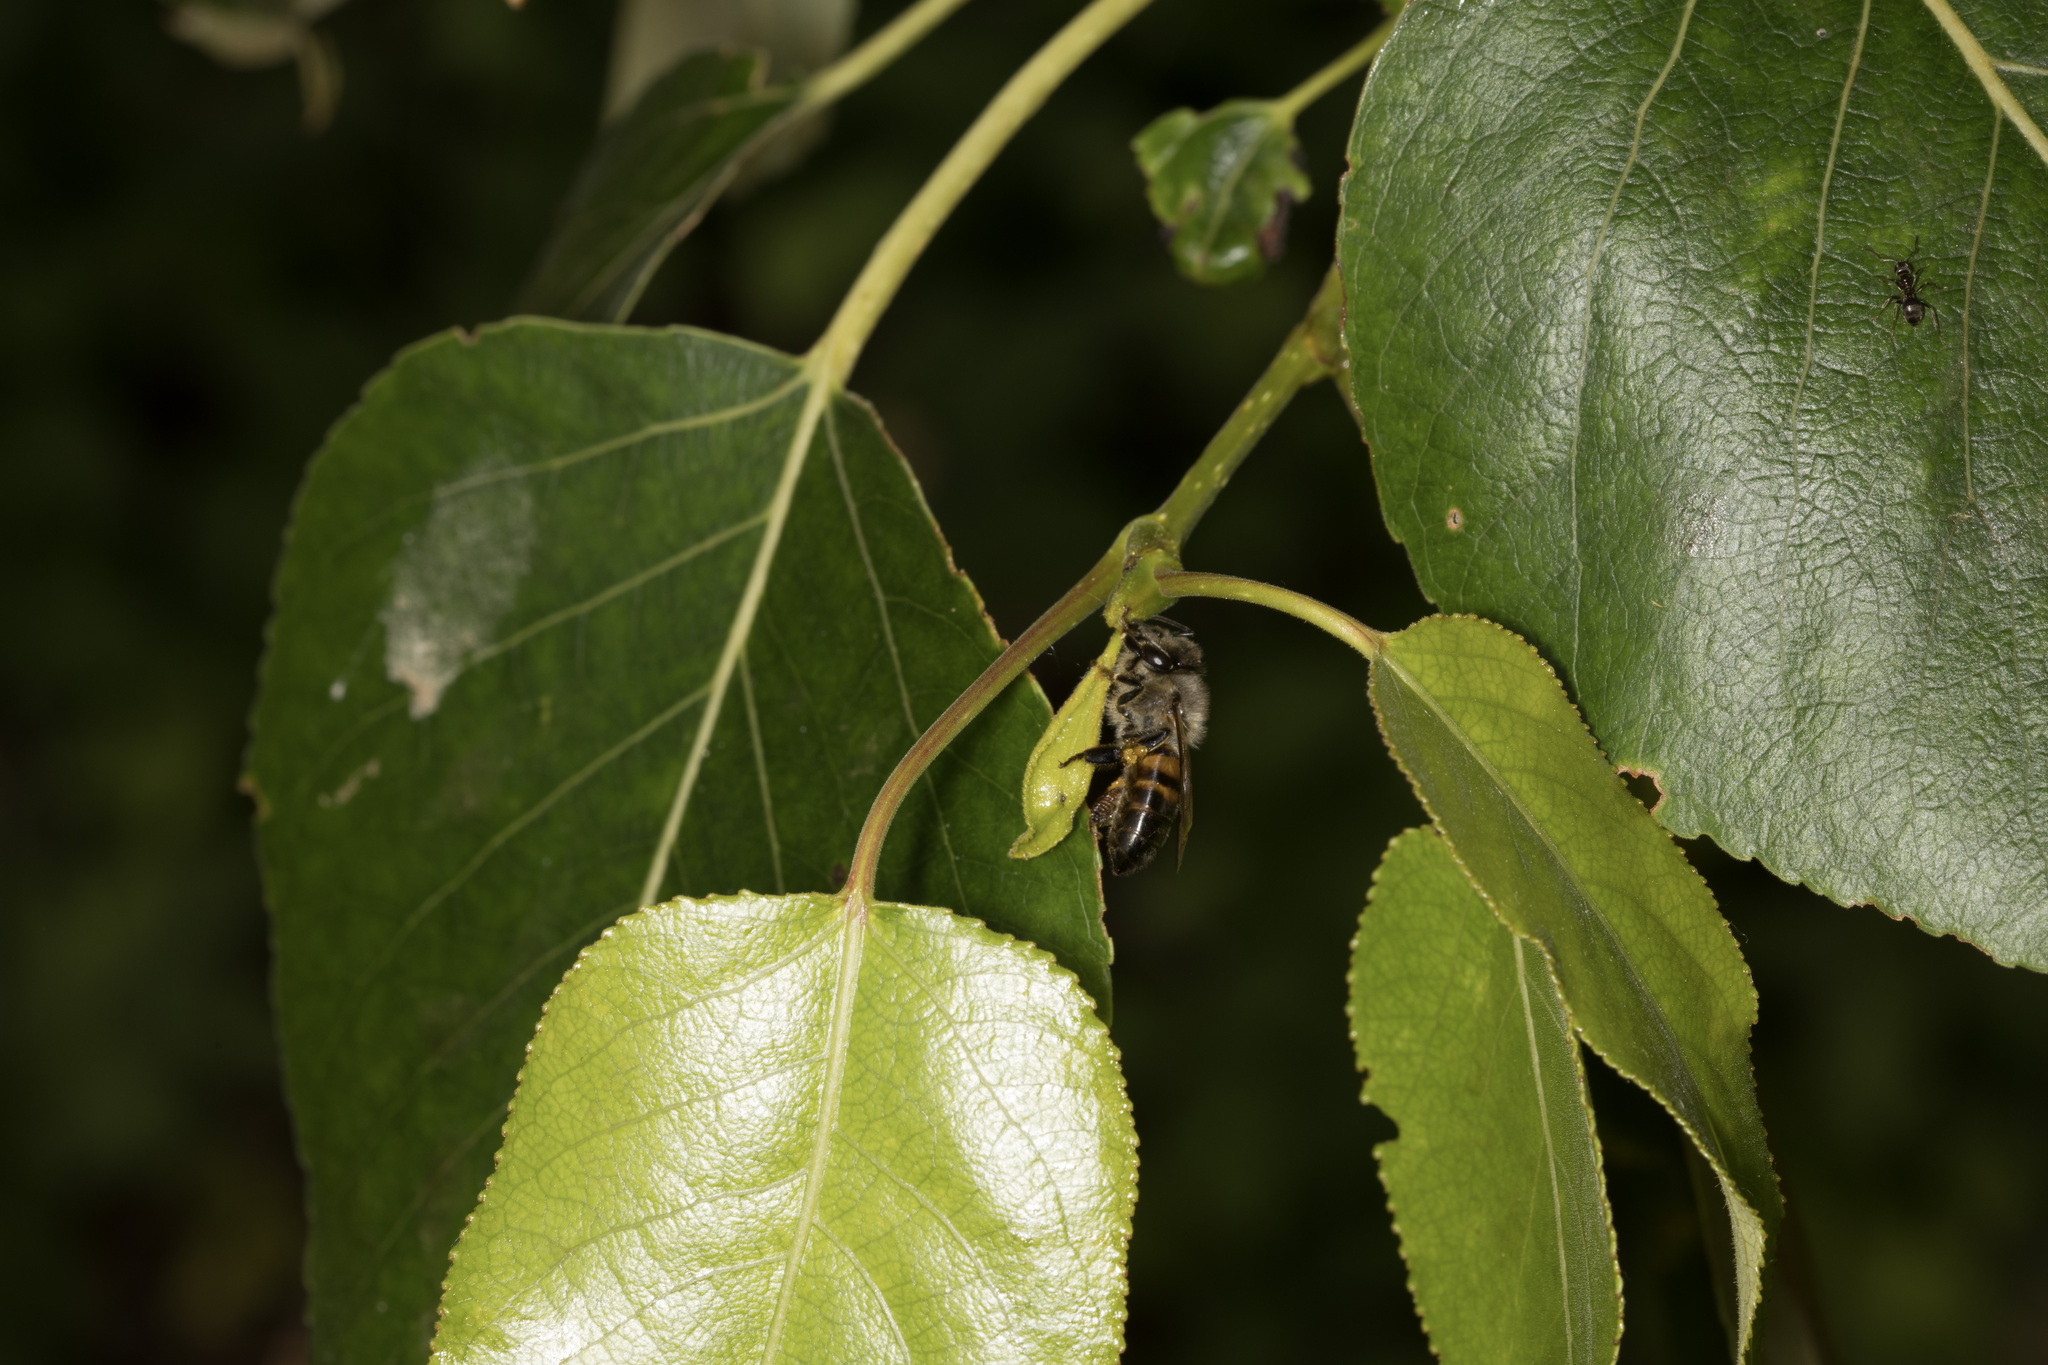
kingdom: Animalia
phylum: Arthropoda
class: Insecta
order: Hymenoptera
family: Apidae
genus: Apis
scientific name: Apis mellifera
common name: Honey bee
